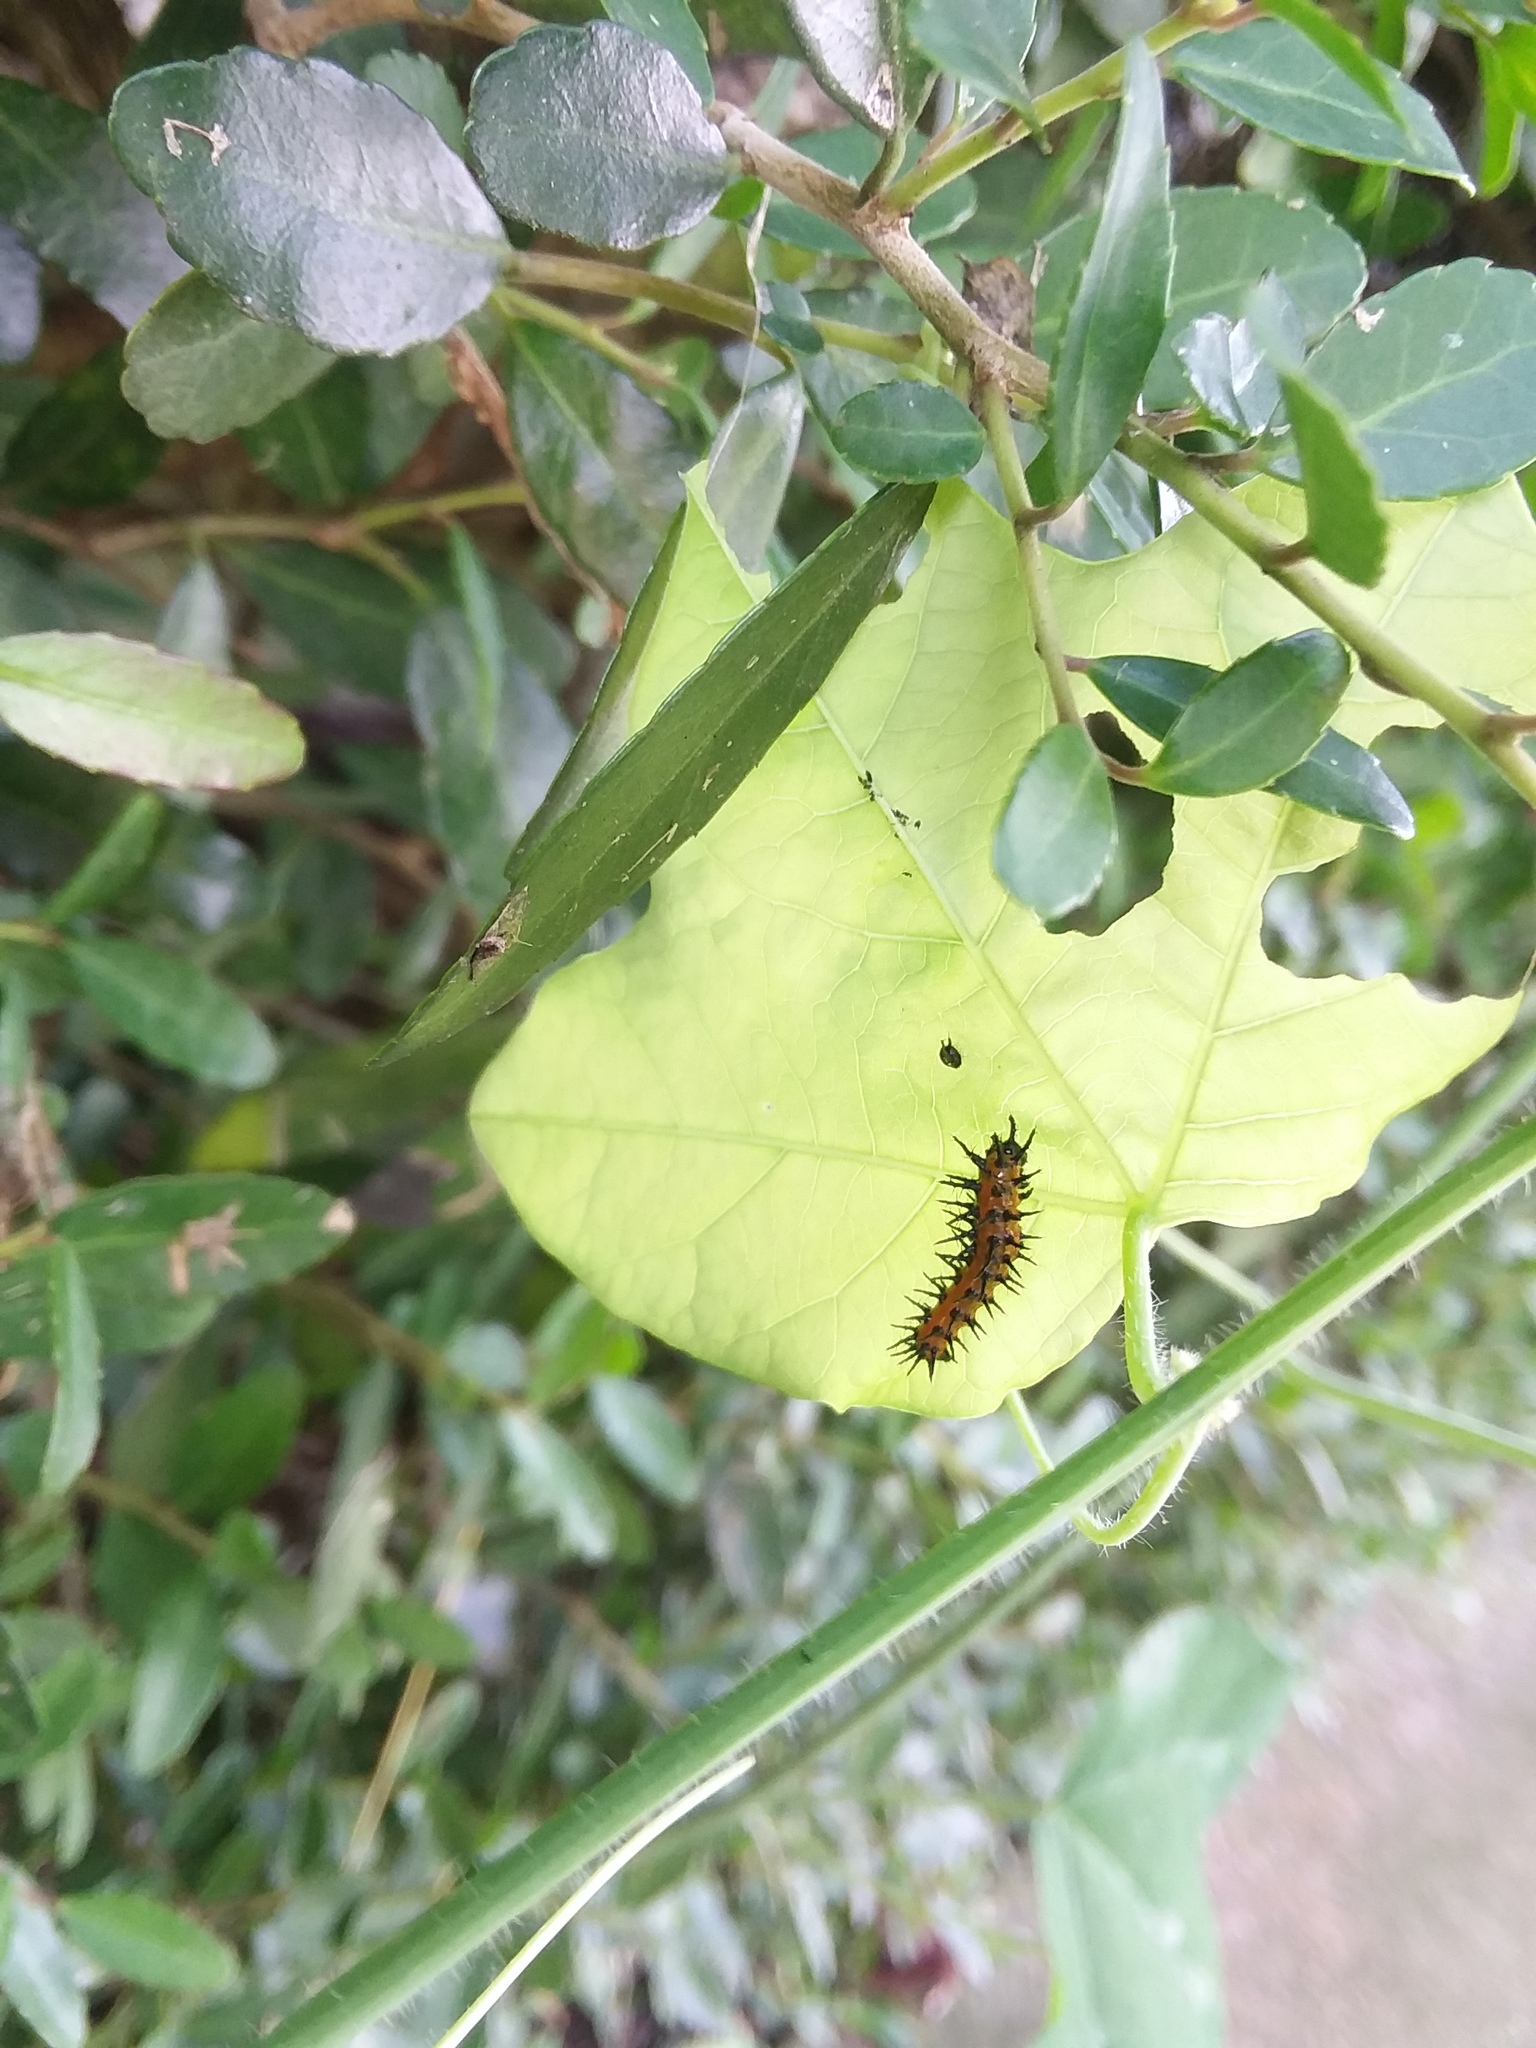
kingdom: Animalia
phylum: Arthropoda
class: Insecta
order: Lepidoptera
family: Nymphalidae
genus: Dione
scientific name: Dione vanillae
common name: Gulf fritillary
